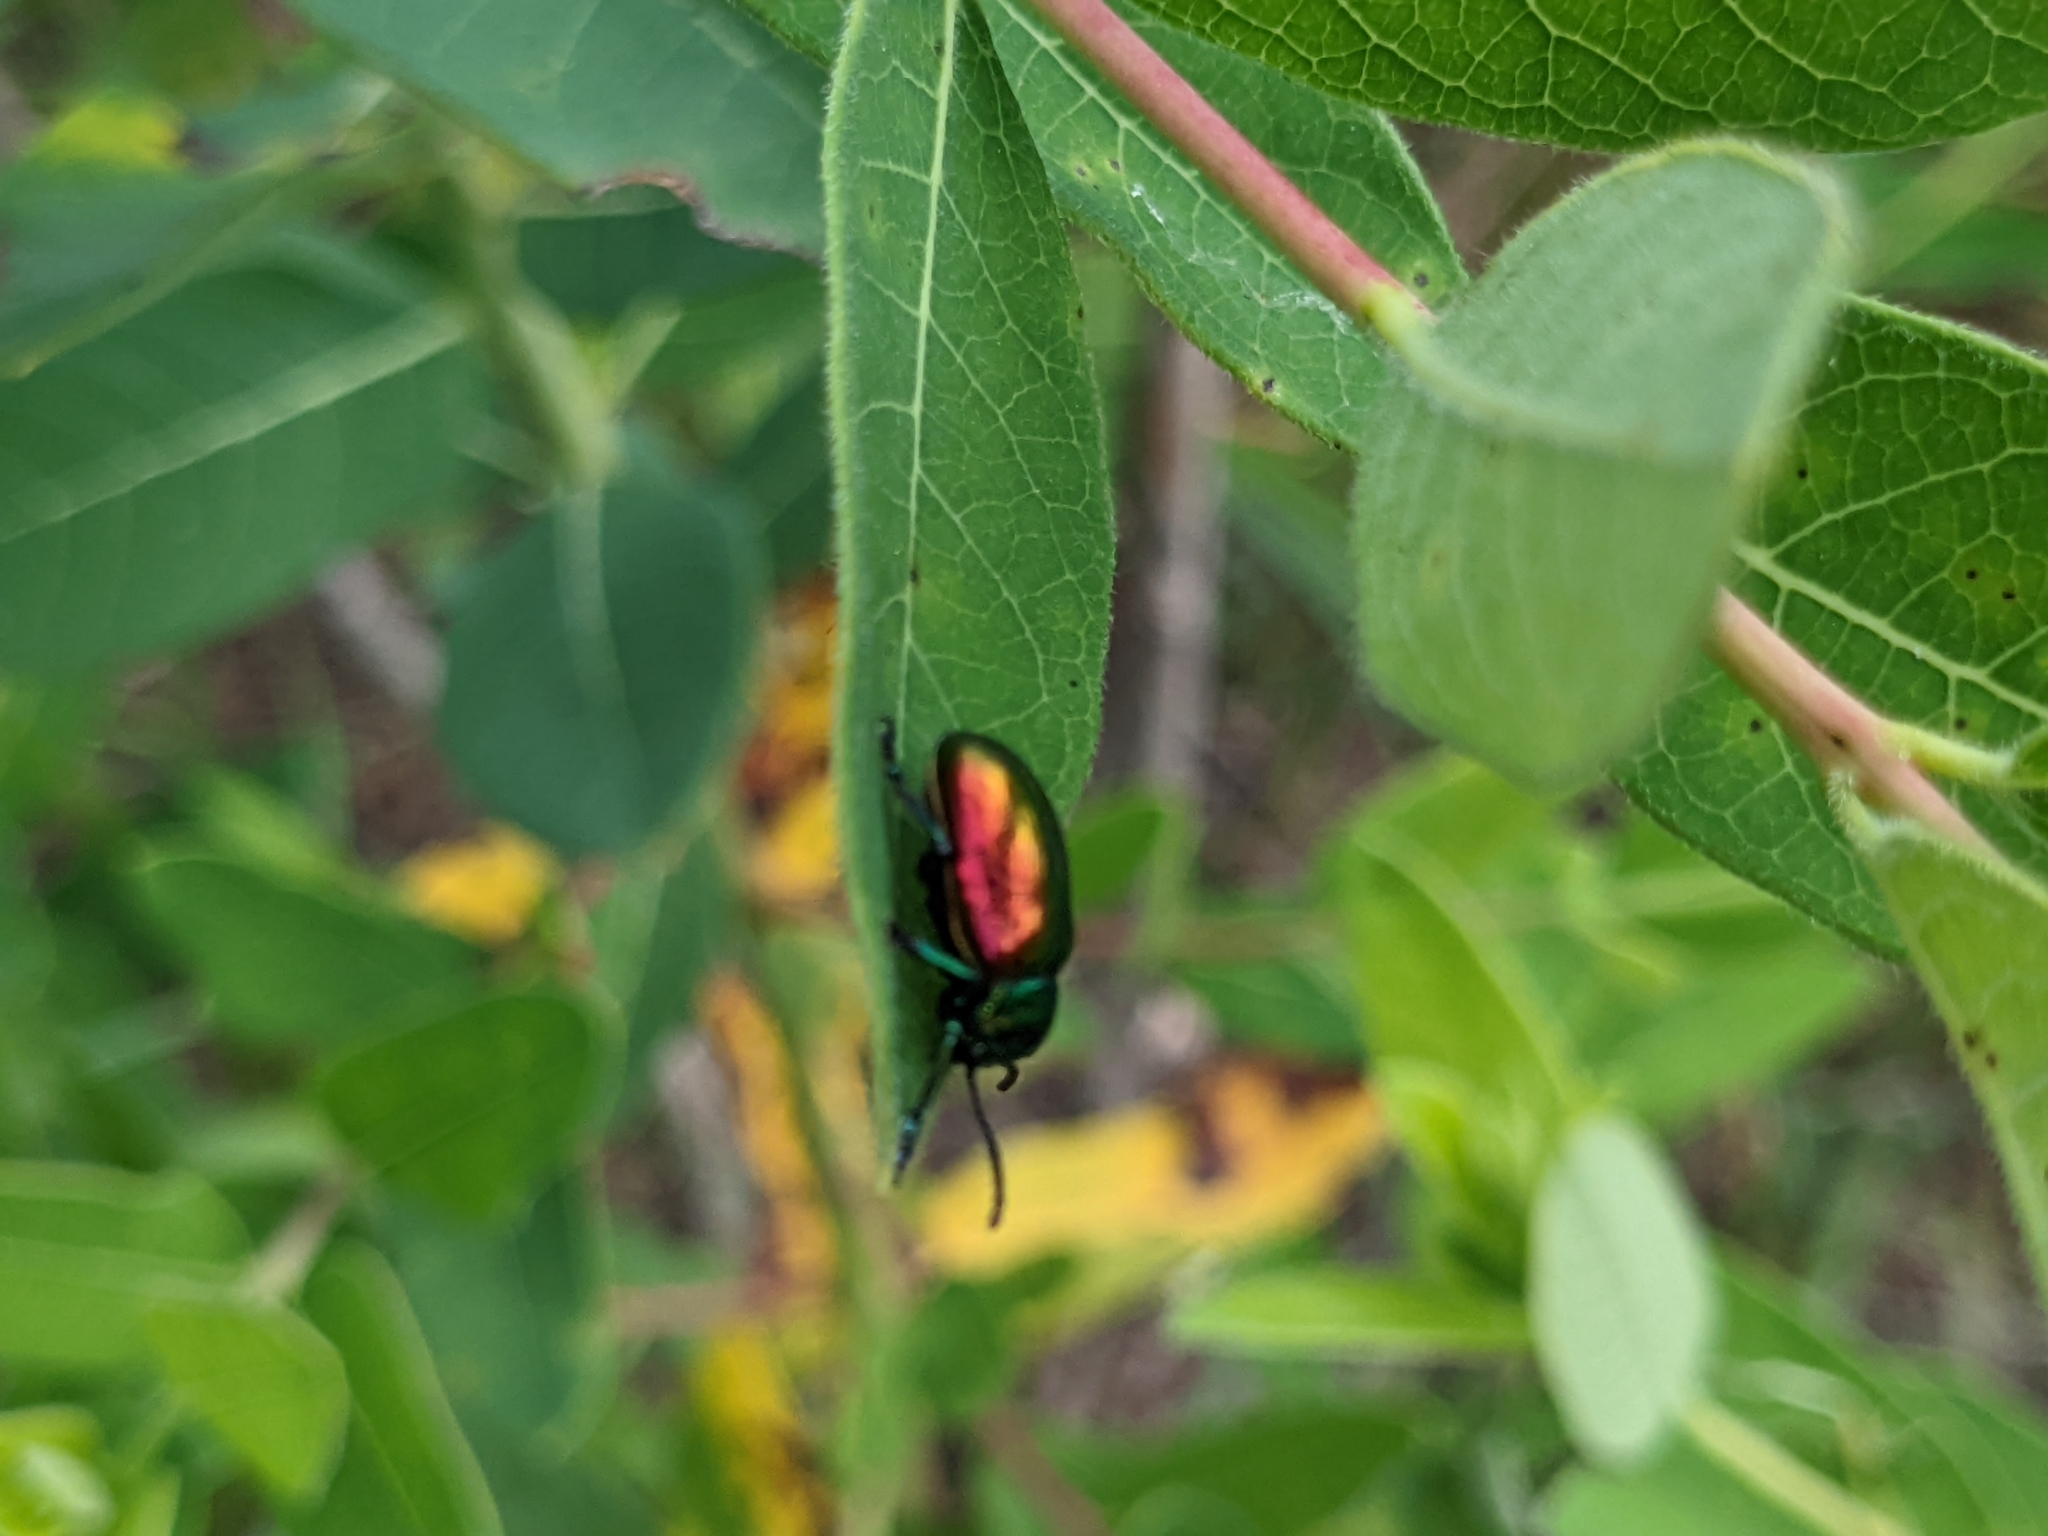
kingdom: Animalia
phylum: Arthropoda
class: Insecta
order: Coleoptera
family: Chrysomelidae
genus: Chrysochus
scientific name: Chrysochus auratus
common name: Dogbane leaf beetle
